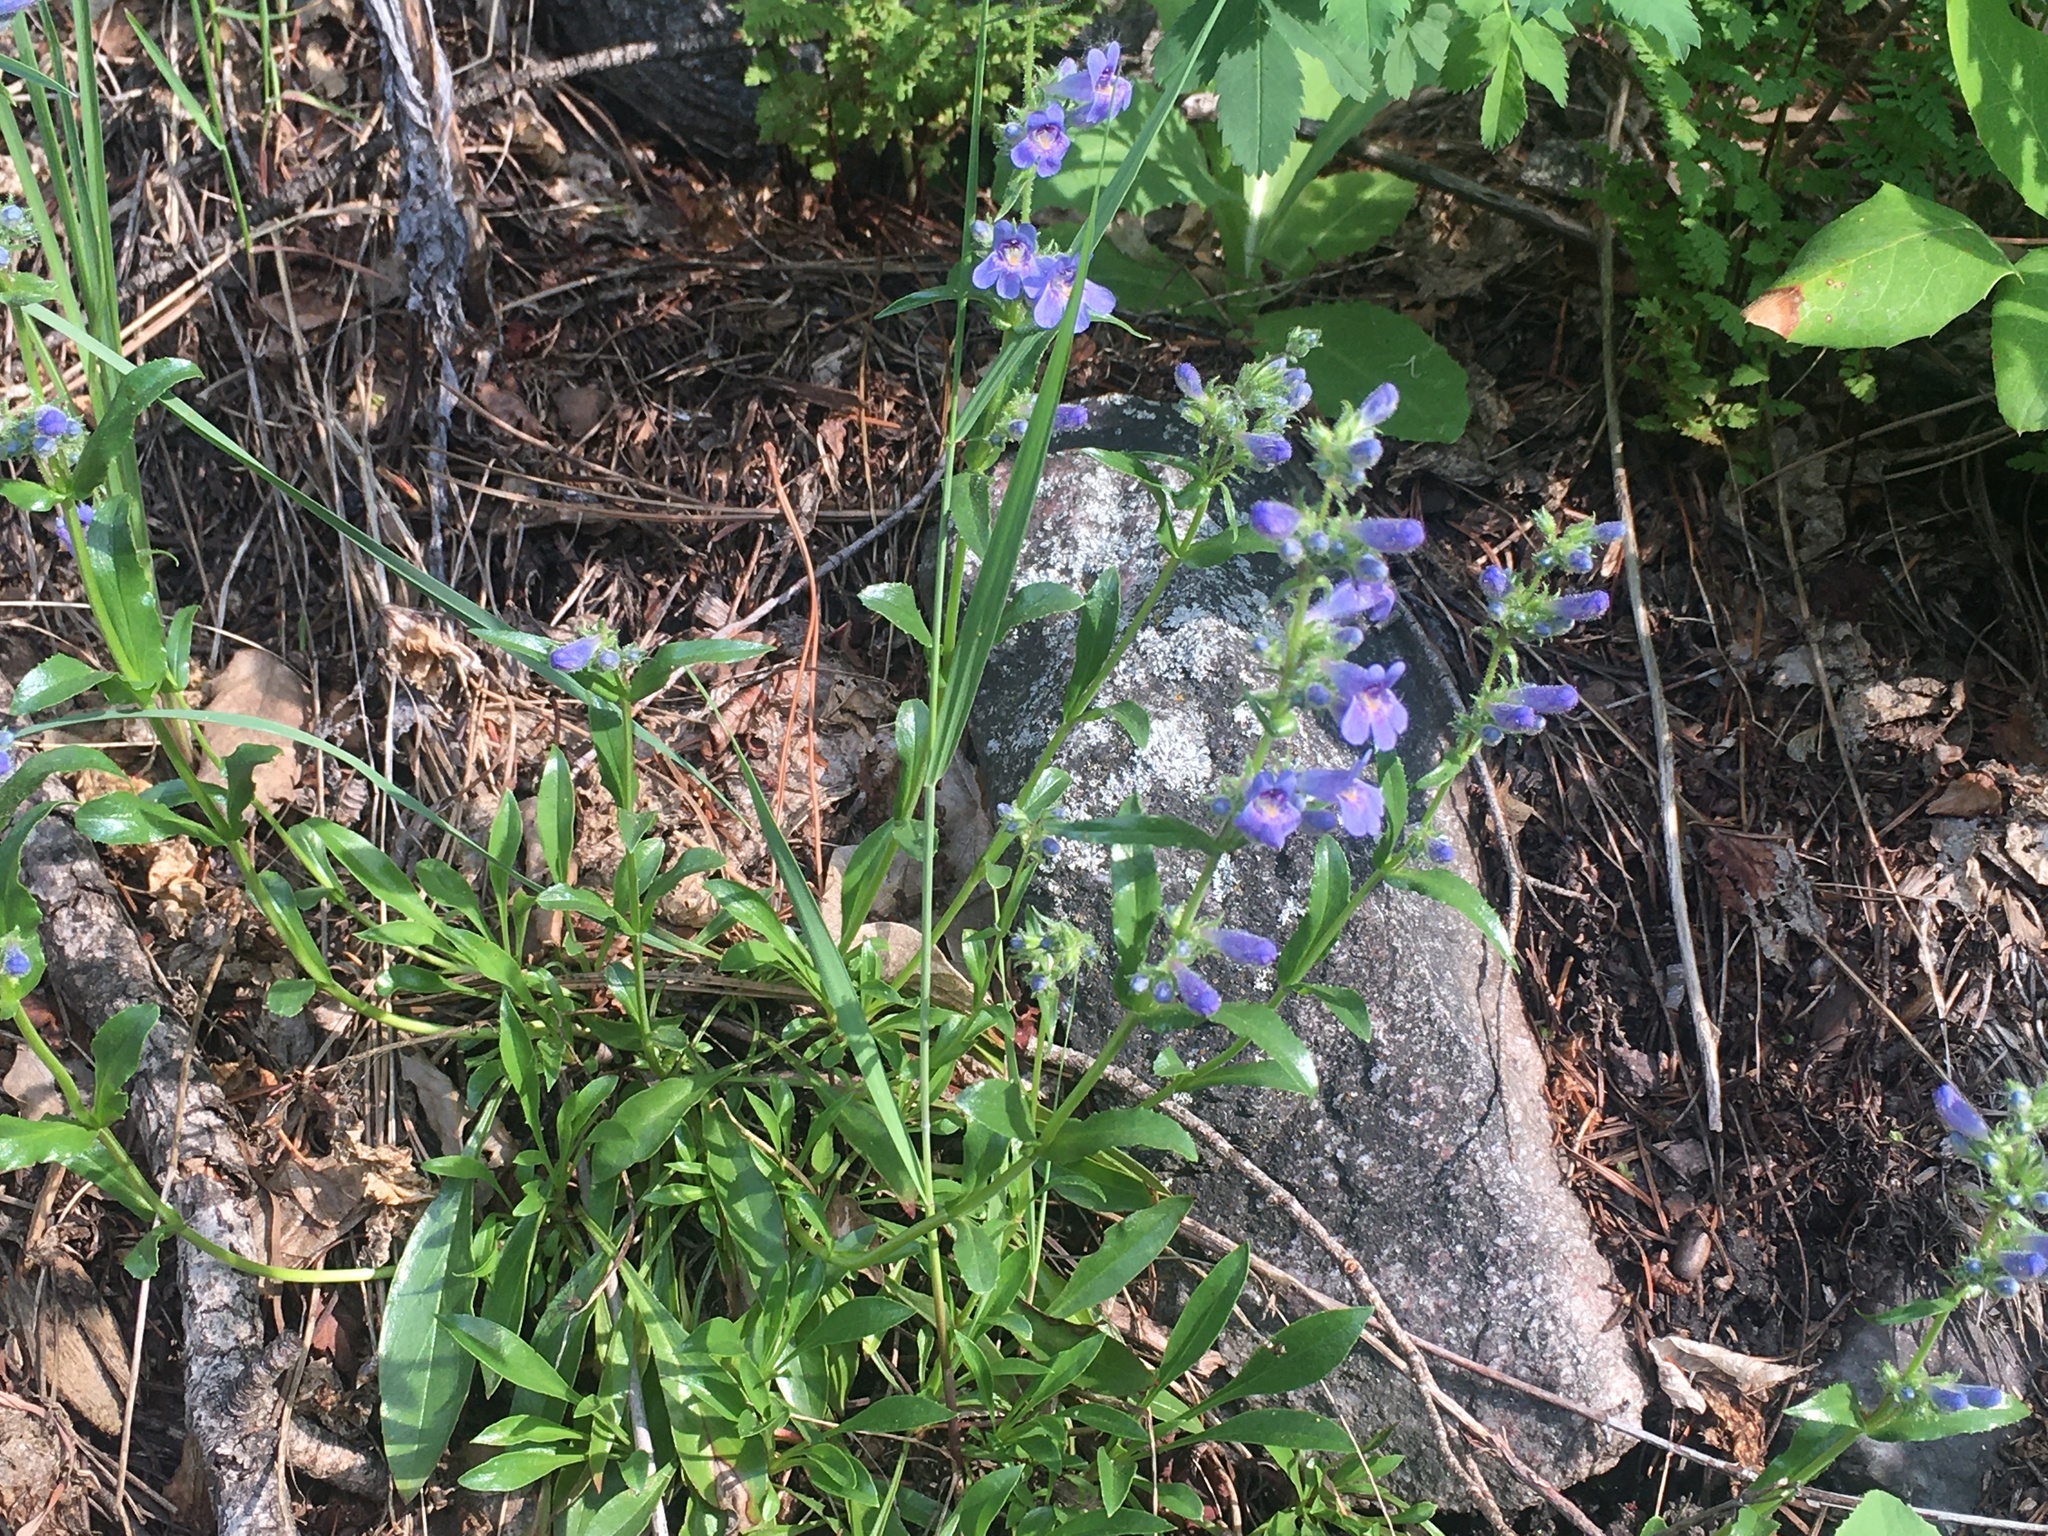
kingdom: Plantae
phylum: Tracheophyta
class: Magnoliopsida
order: Lamiales
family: Plantaginaceae
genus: Penstemon
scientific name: Penstemon virens
